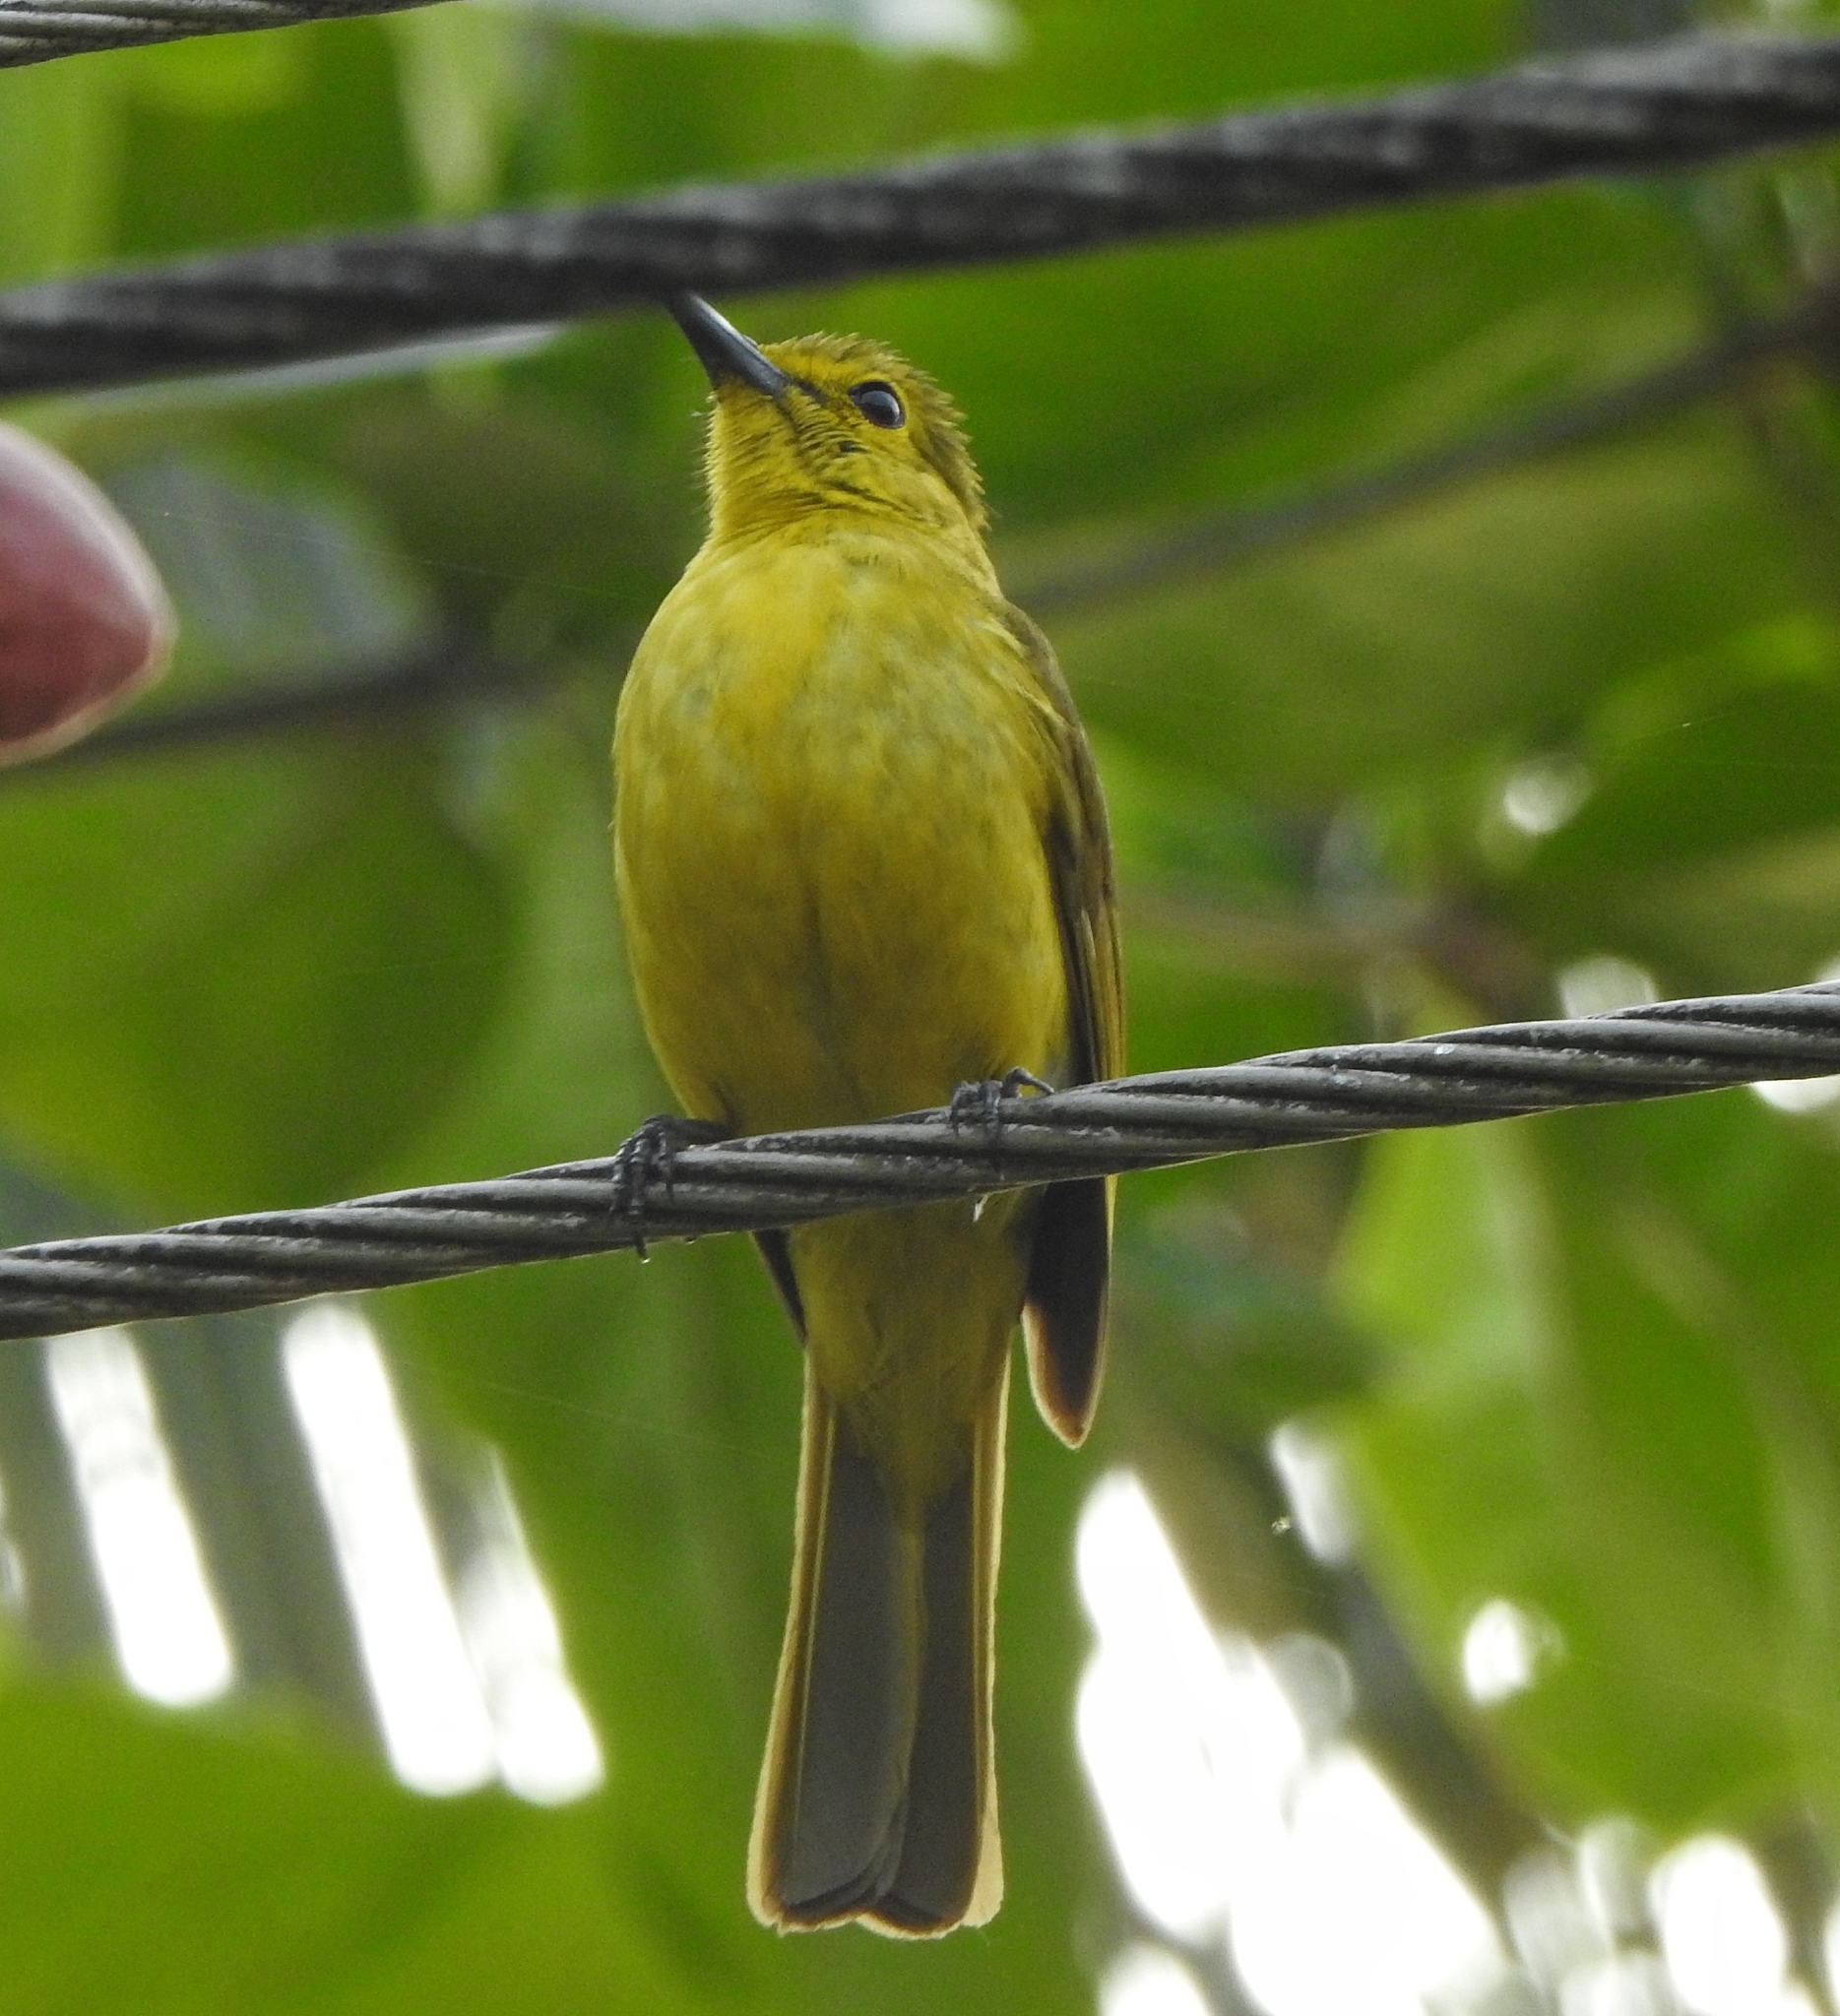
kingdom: Animalia
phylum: Chordata
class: Aves
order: Passeriformes
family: Pycnonotidae
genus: Acritillas
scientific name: Acritillas indica
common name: Yellow-browed bulbul
